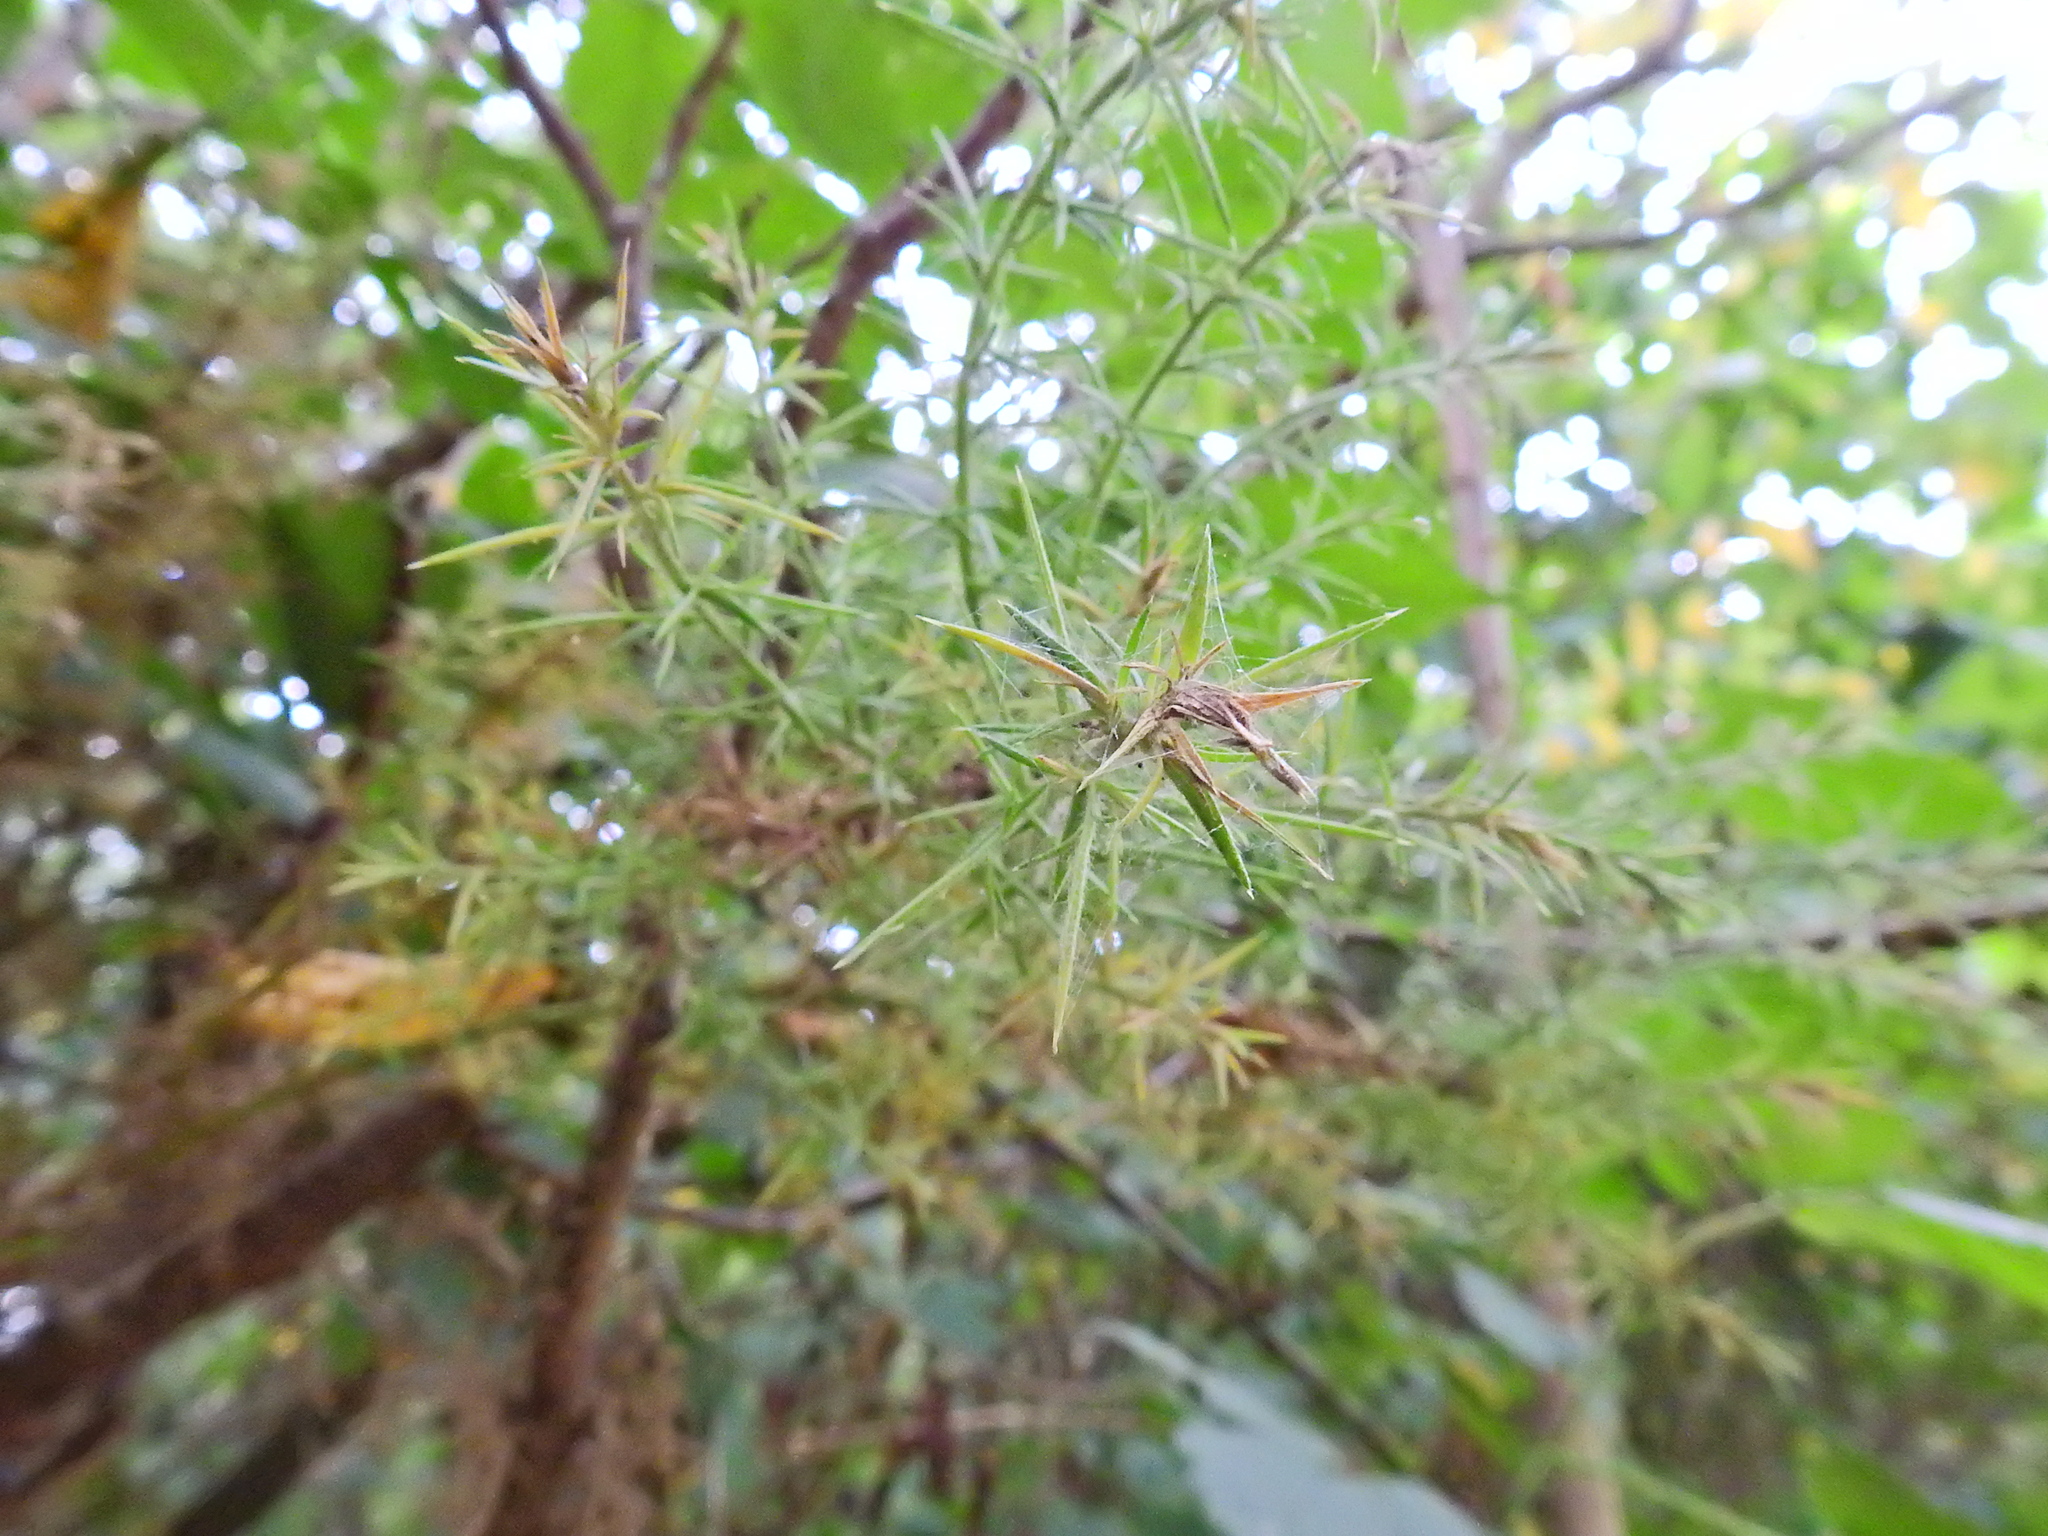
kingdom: Plantae
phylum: Tracheophyta
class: Magnoliopsida
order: Fabales
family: Fabaceae
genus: Ulex
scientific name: Ulex europaeus
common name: Common gorse
